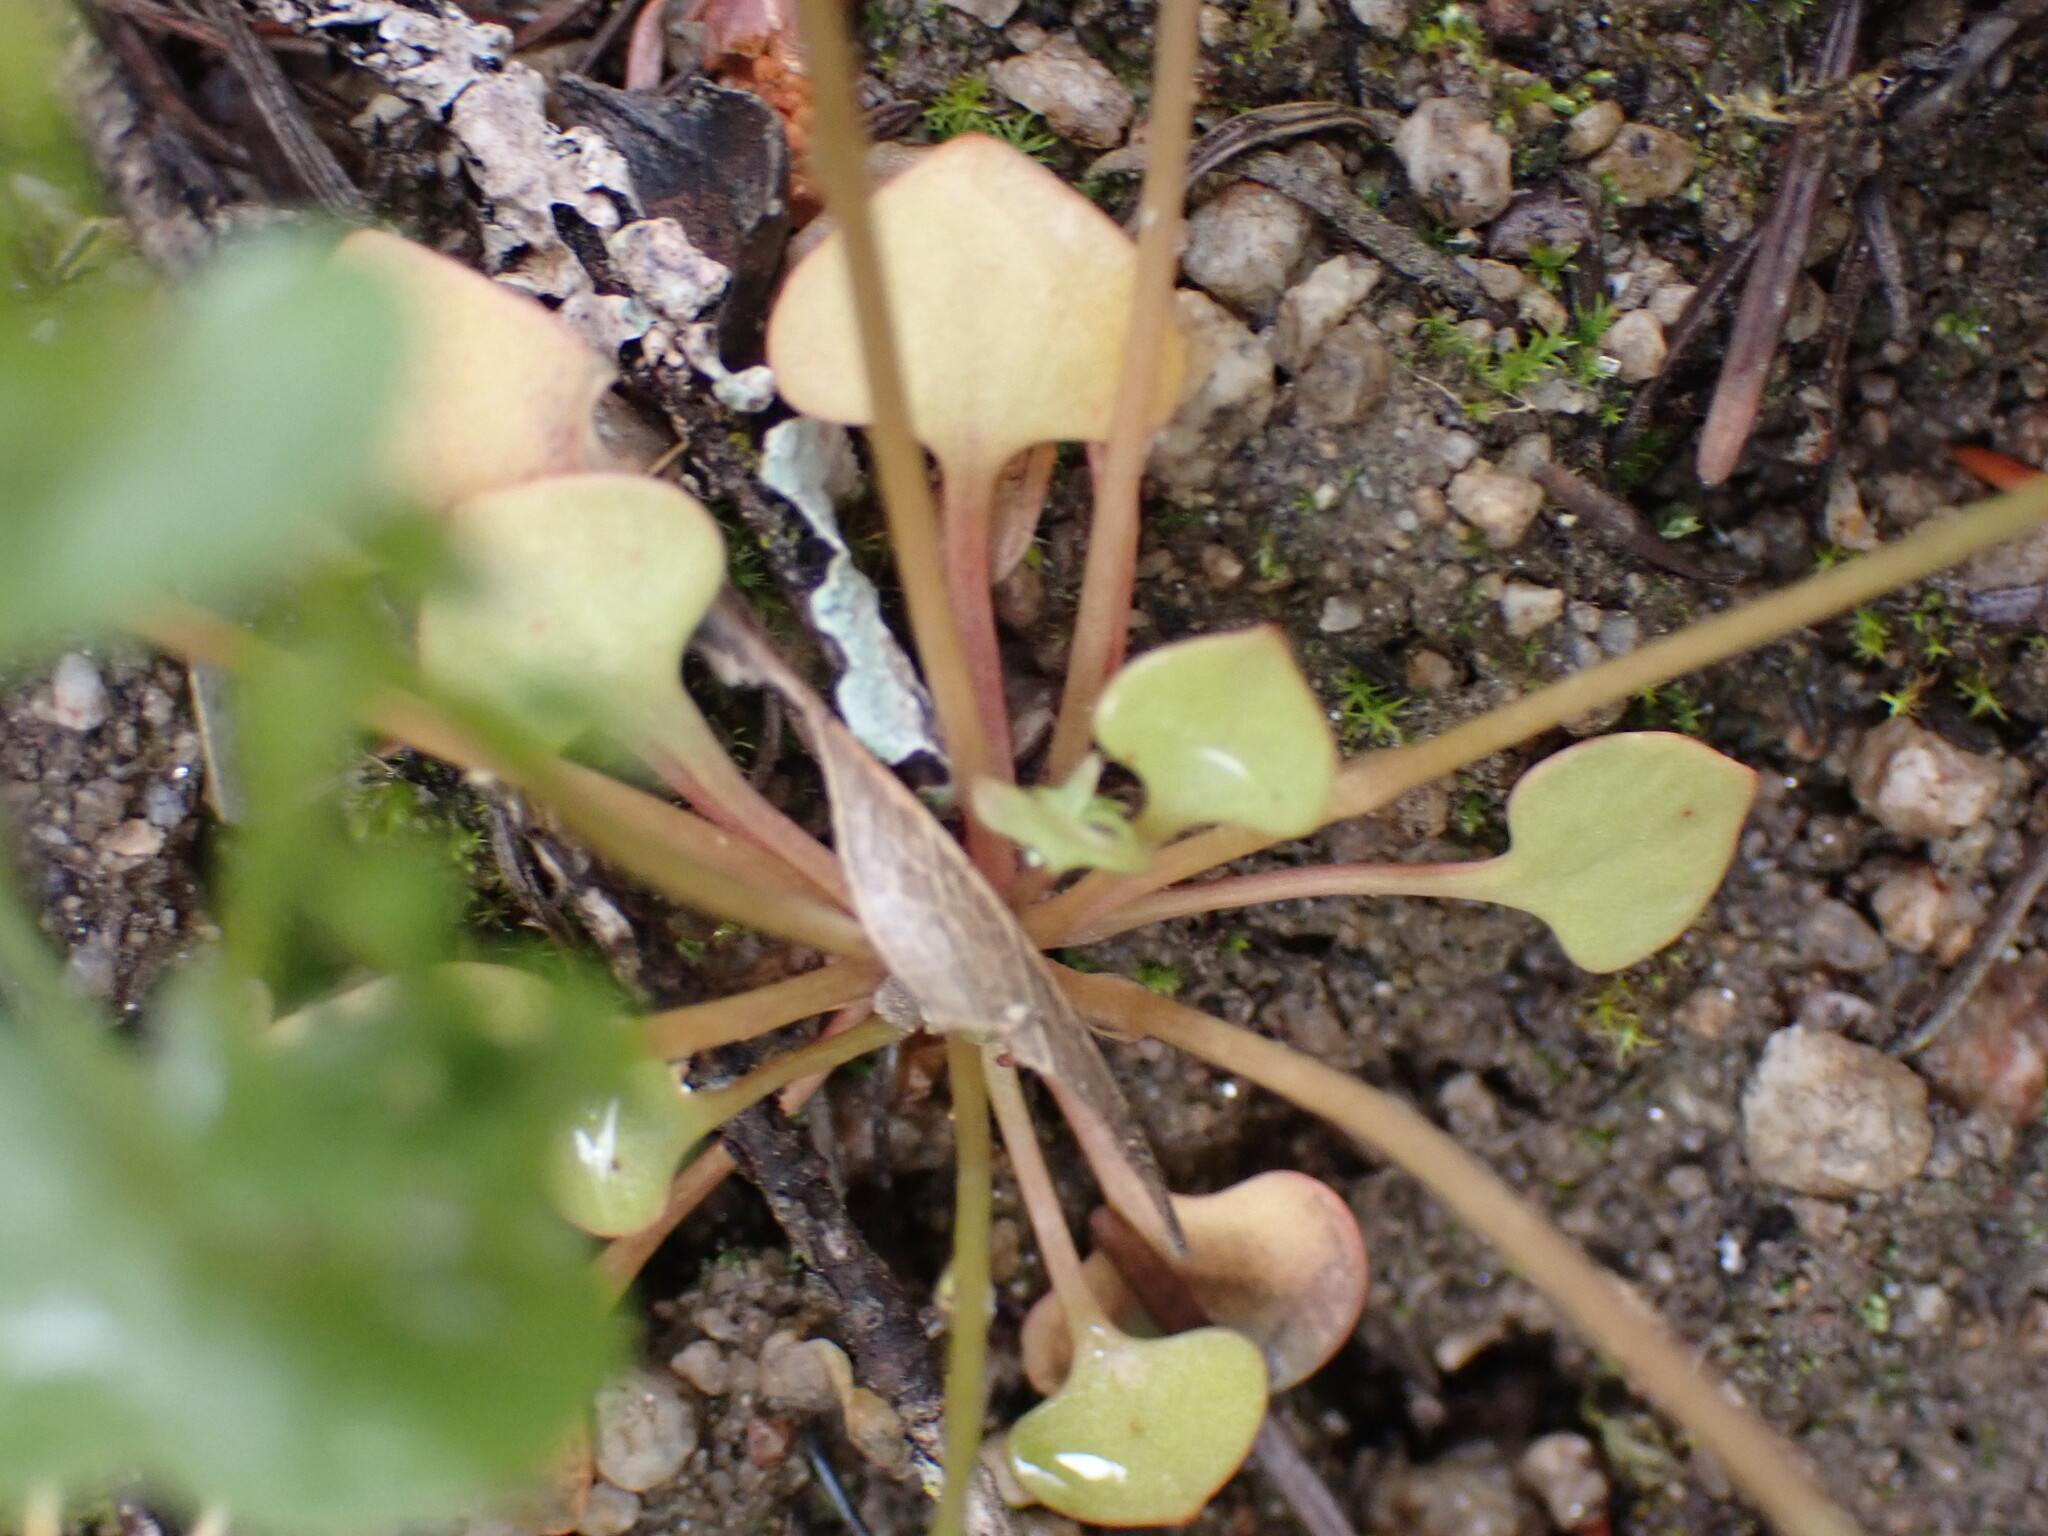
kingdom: Plantae
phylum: Tracheophyta
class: Magnoliopsida
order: Caryophyllales
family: Montiaceae
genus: Claytonia
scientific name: Claytonia rubra
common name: Erubescent miner's-lettuce
